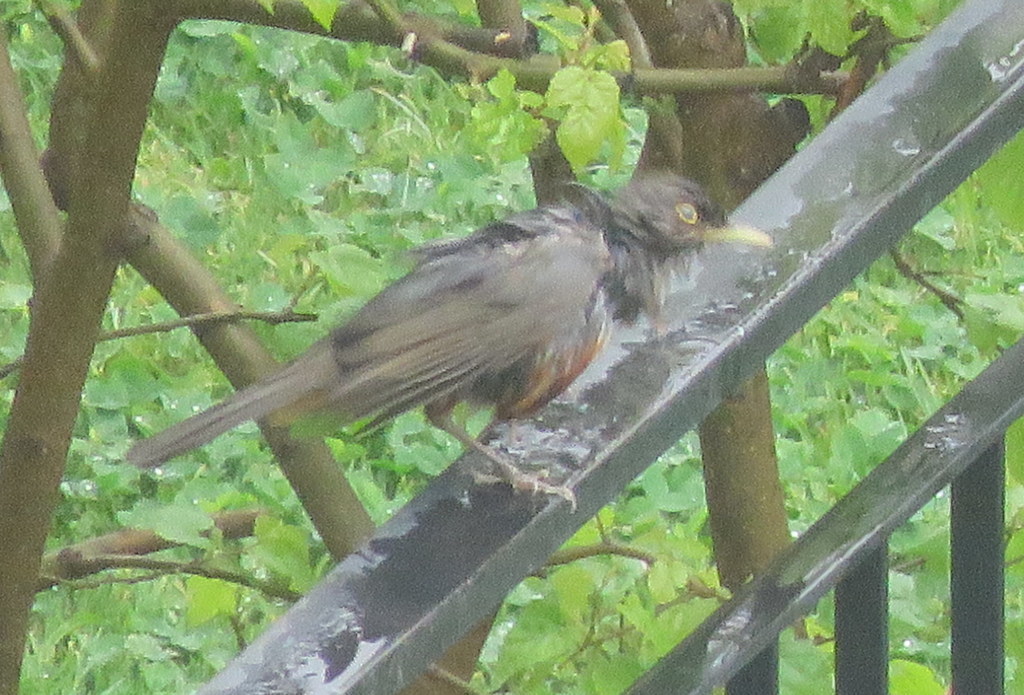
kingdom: Animalia
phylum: Chordata
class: Aves
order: Passeriformes
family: Turdidae
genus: Turdus
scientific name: Turdus rufiventris
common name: Rufous-bellied thrush
